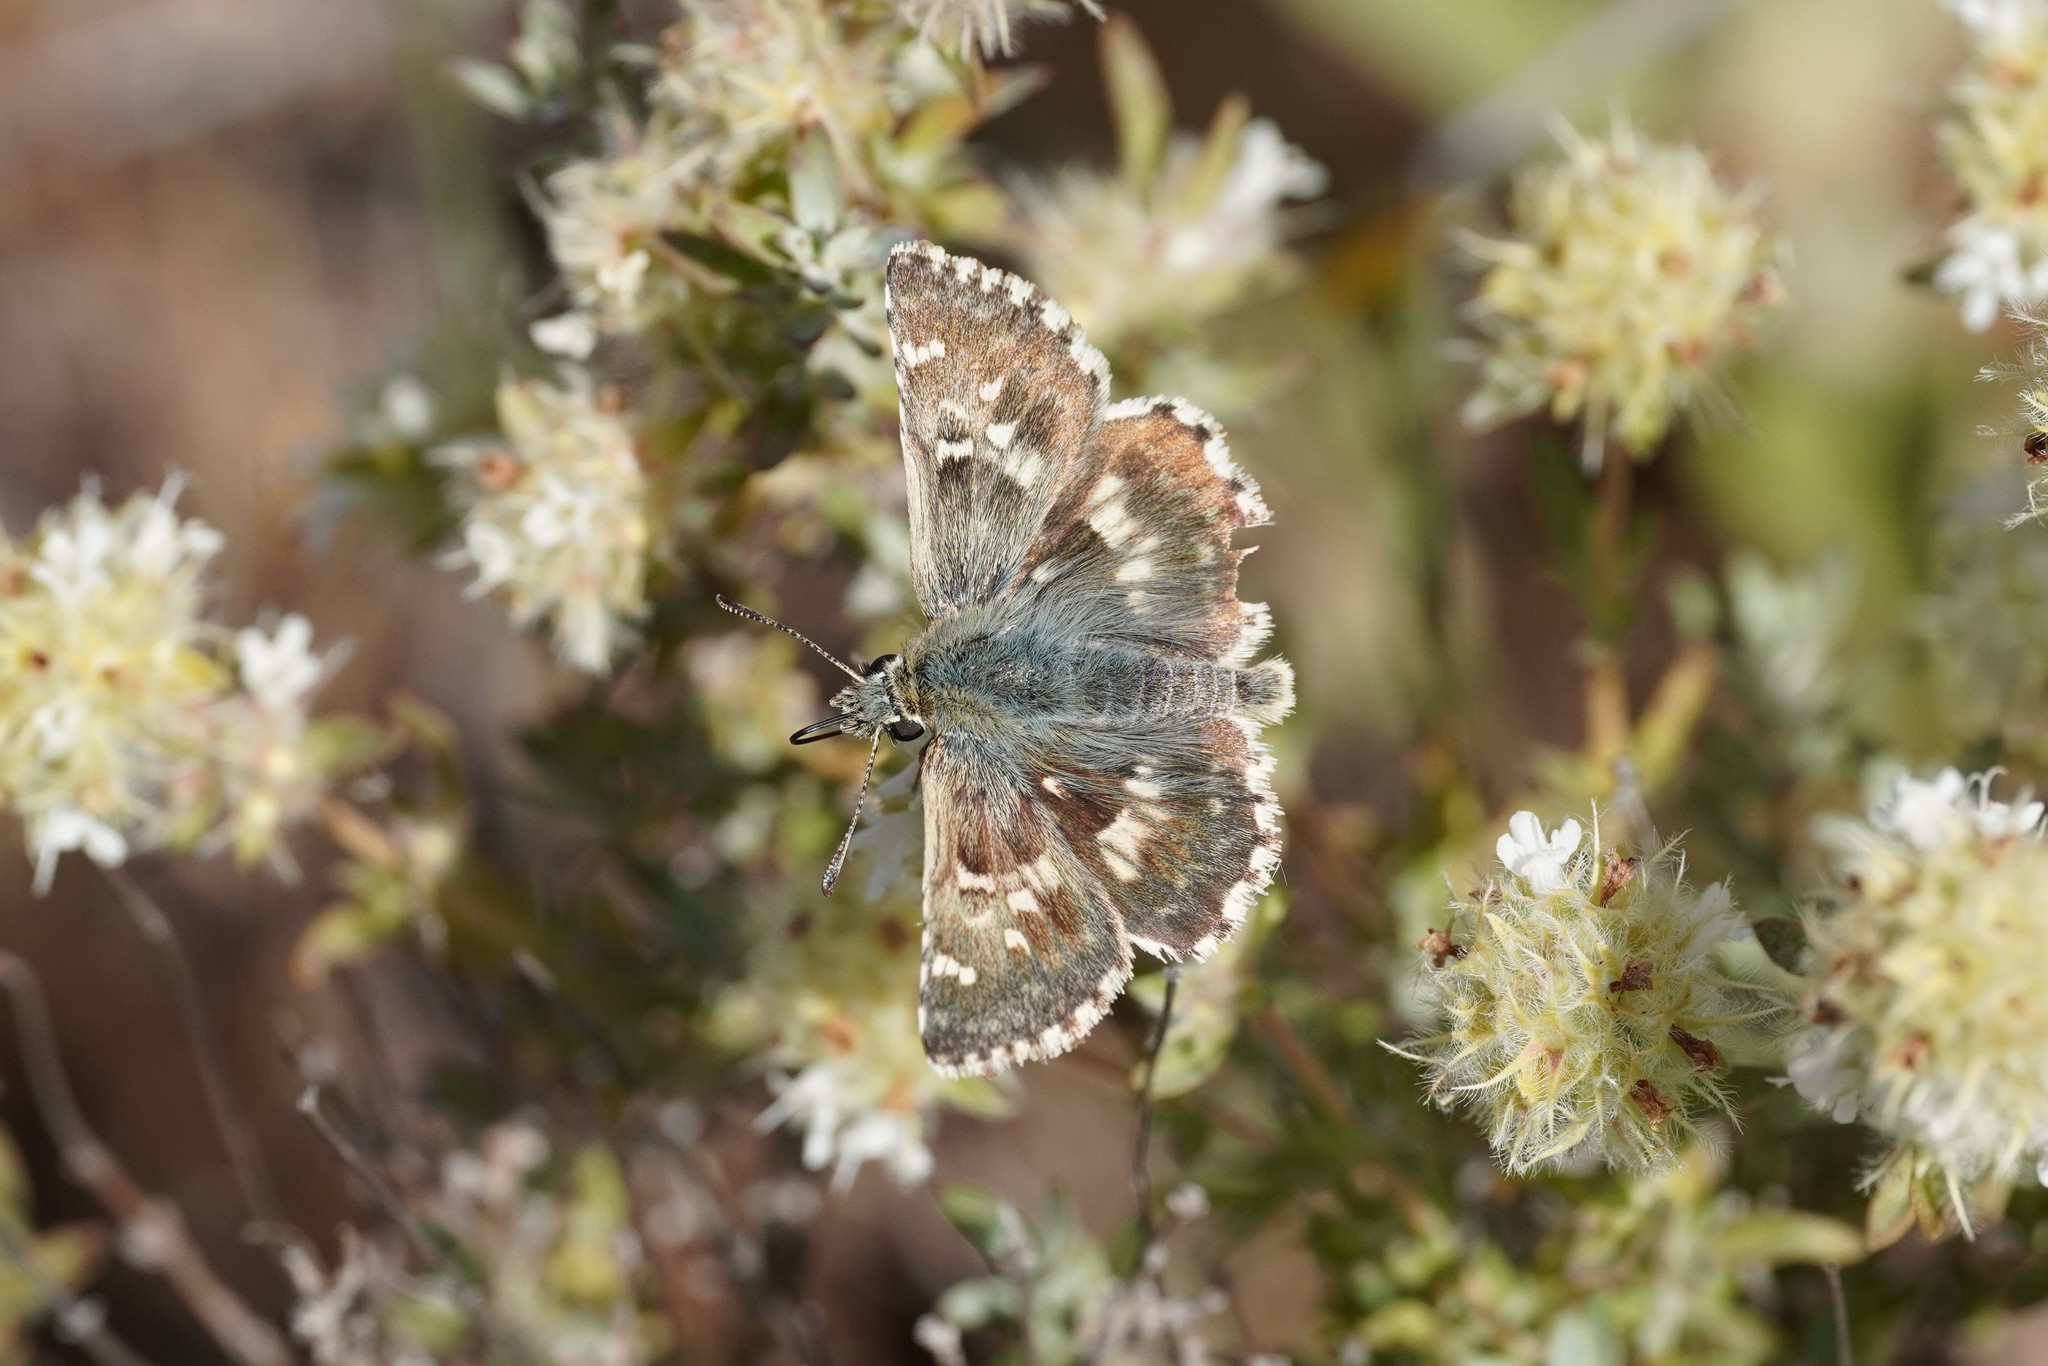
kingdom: Animalia
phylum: Arthropoda
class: Insecta
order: Lepidoptera
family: Hesperiidae
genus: Syrichtus
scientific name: Syrichtus Muschampia proto
